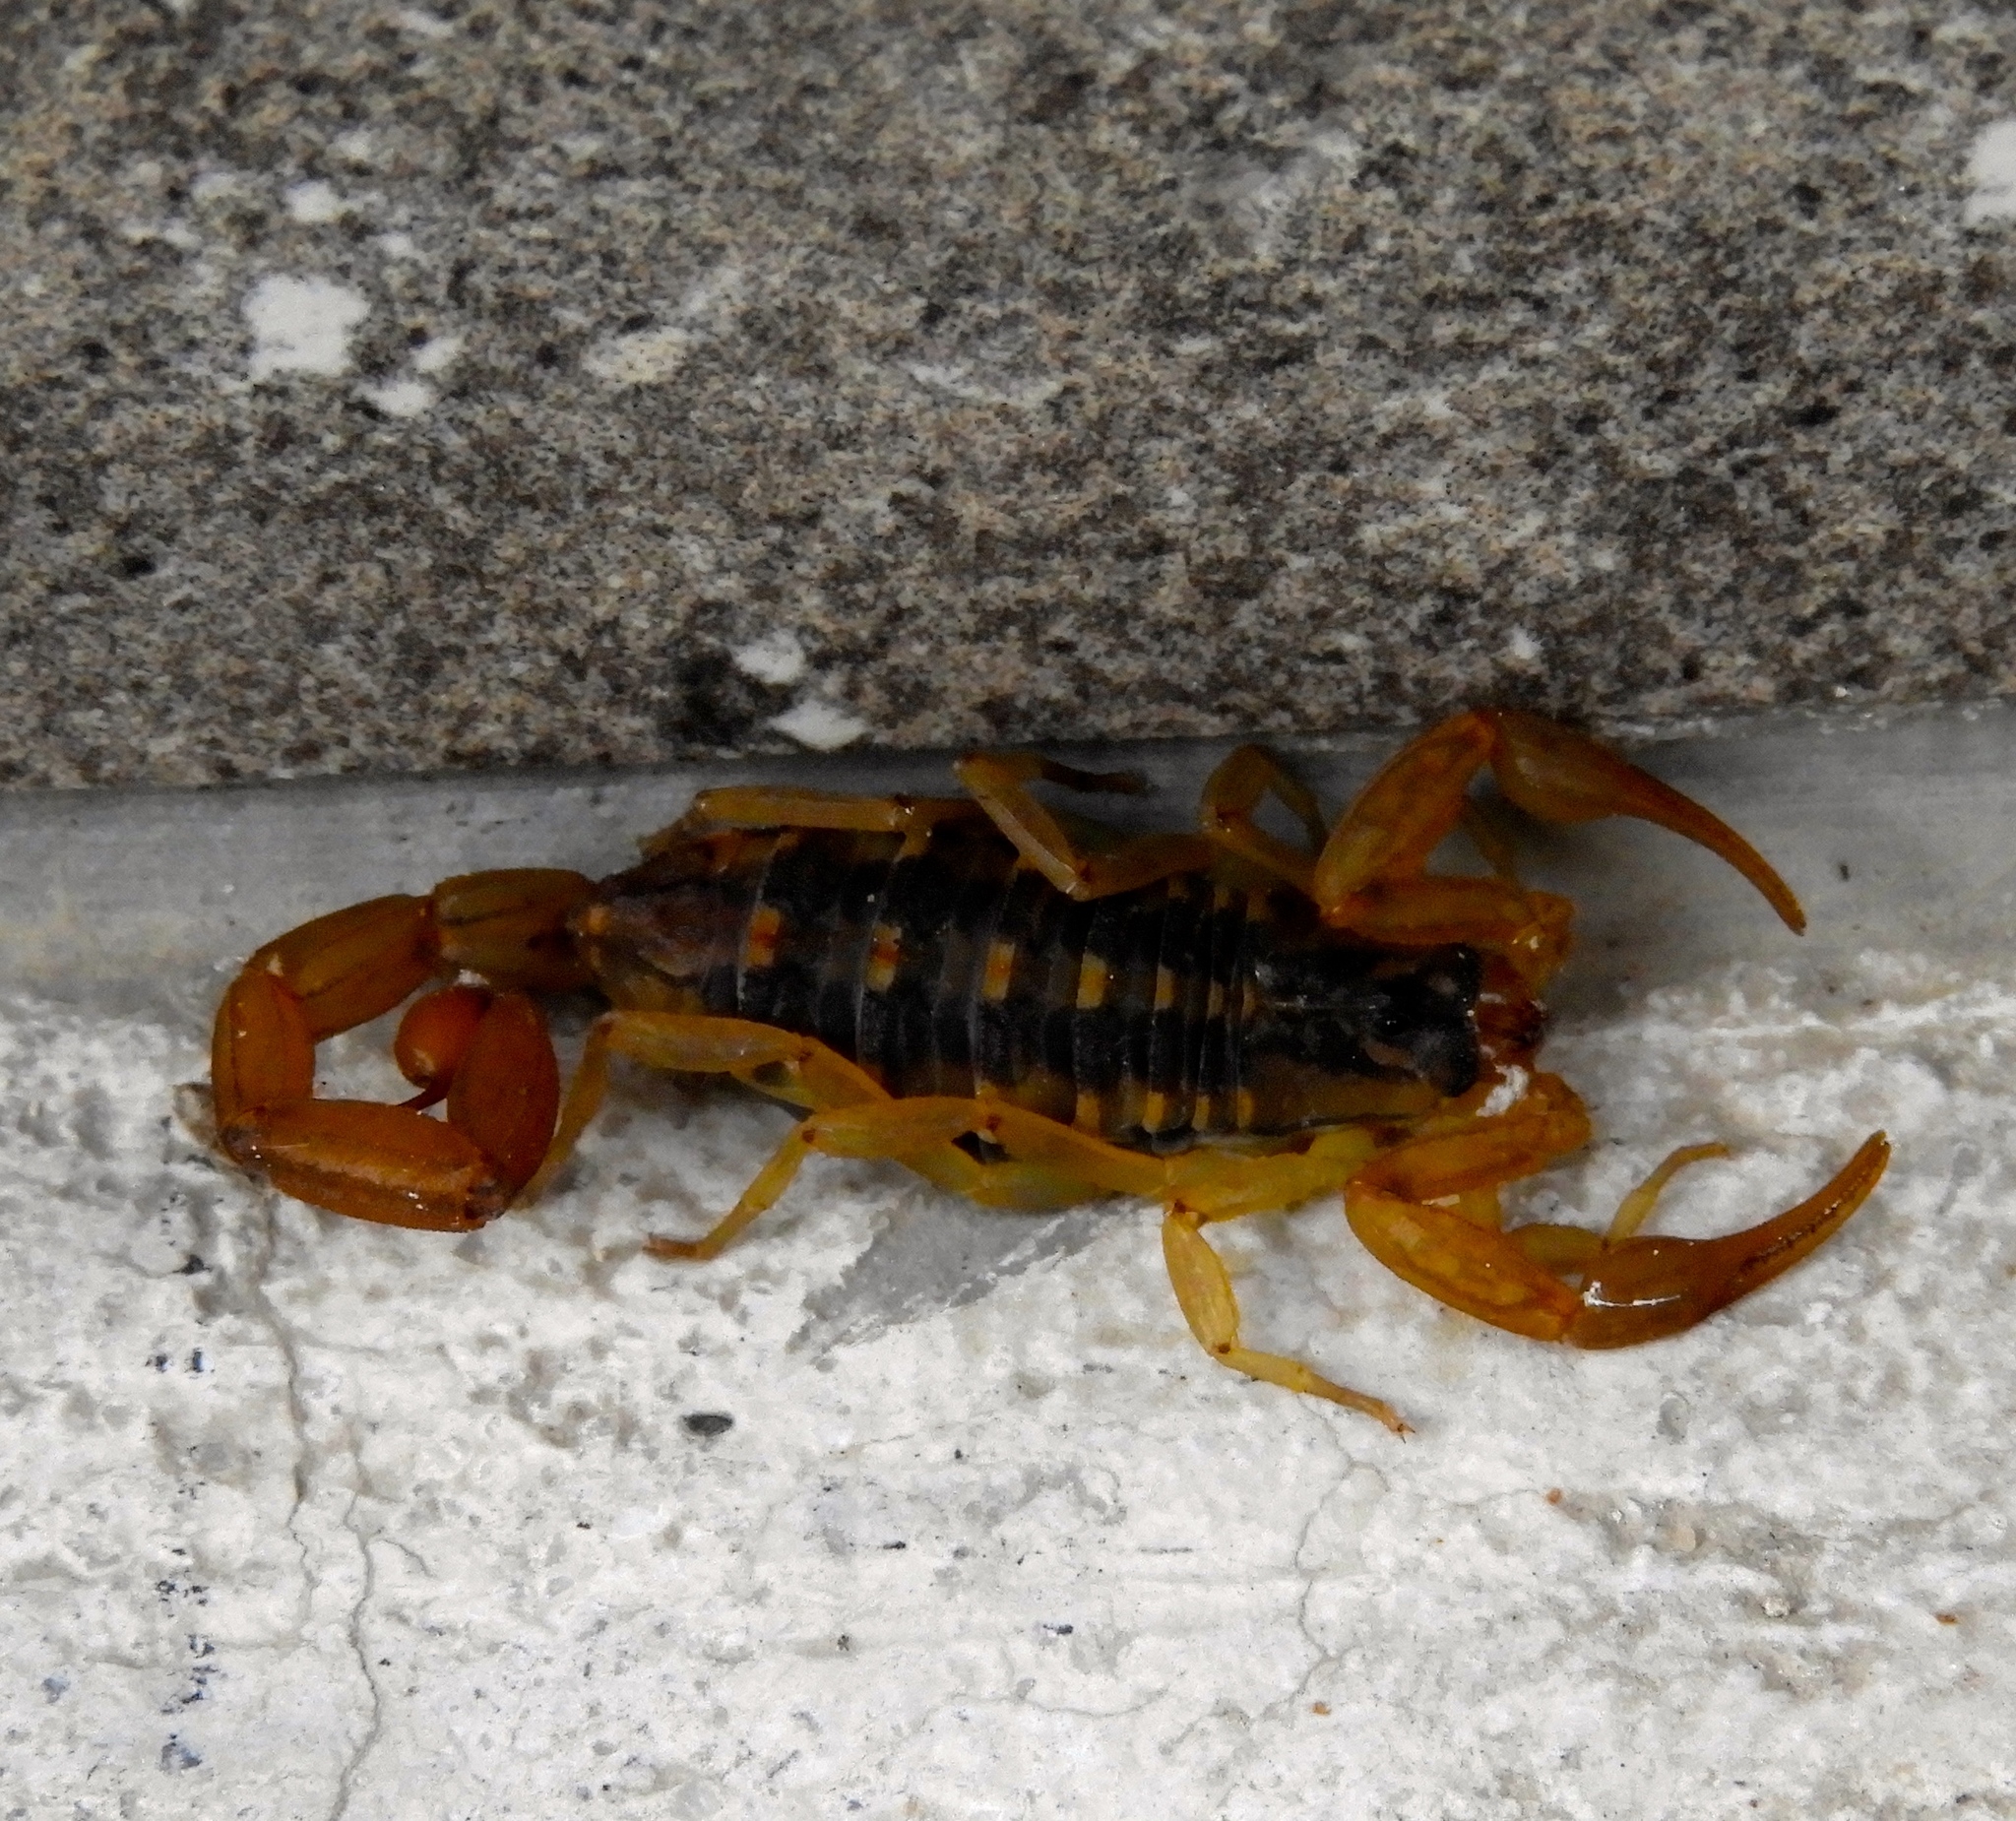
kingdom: Animalia
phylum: Arthropoda
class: Arachnida
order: Scorpiones
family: Buthidae
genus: Centruroides
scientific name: Centruroides
